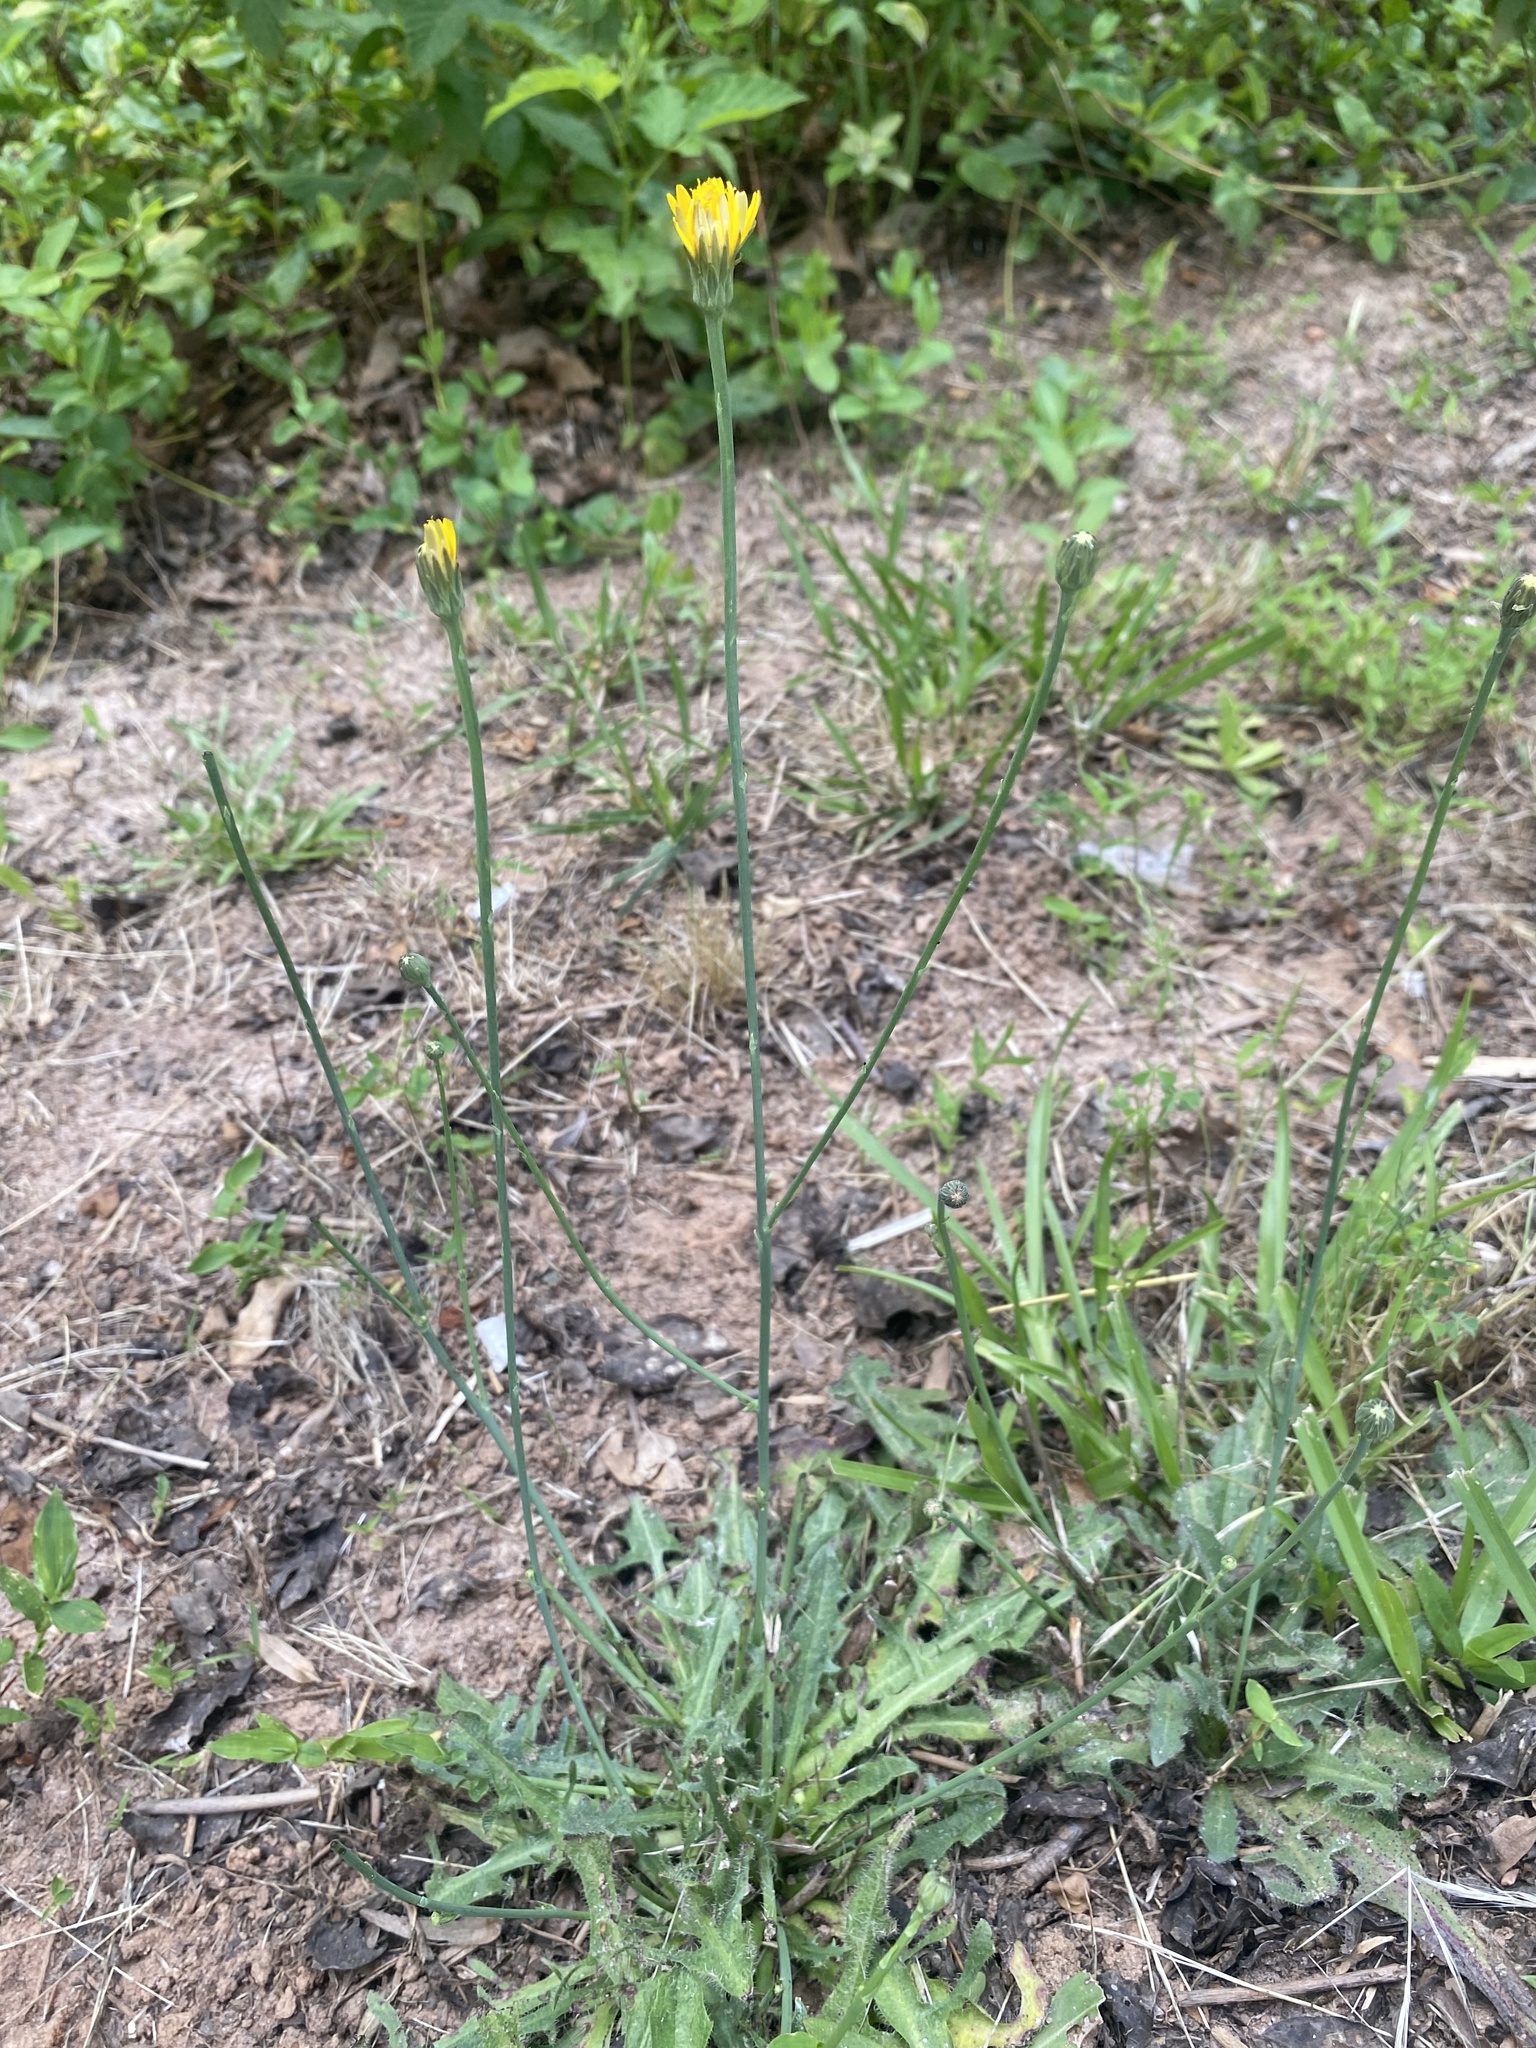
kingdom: Plantae
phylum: Tracheophyta
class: Magnoliopsida
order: Asterales
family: Asteraceae
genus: Hypochaeris
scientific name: Hypochaeris radicata
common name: Flatweed
